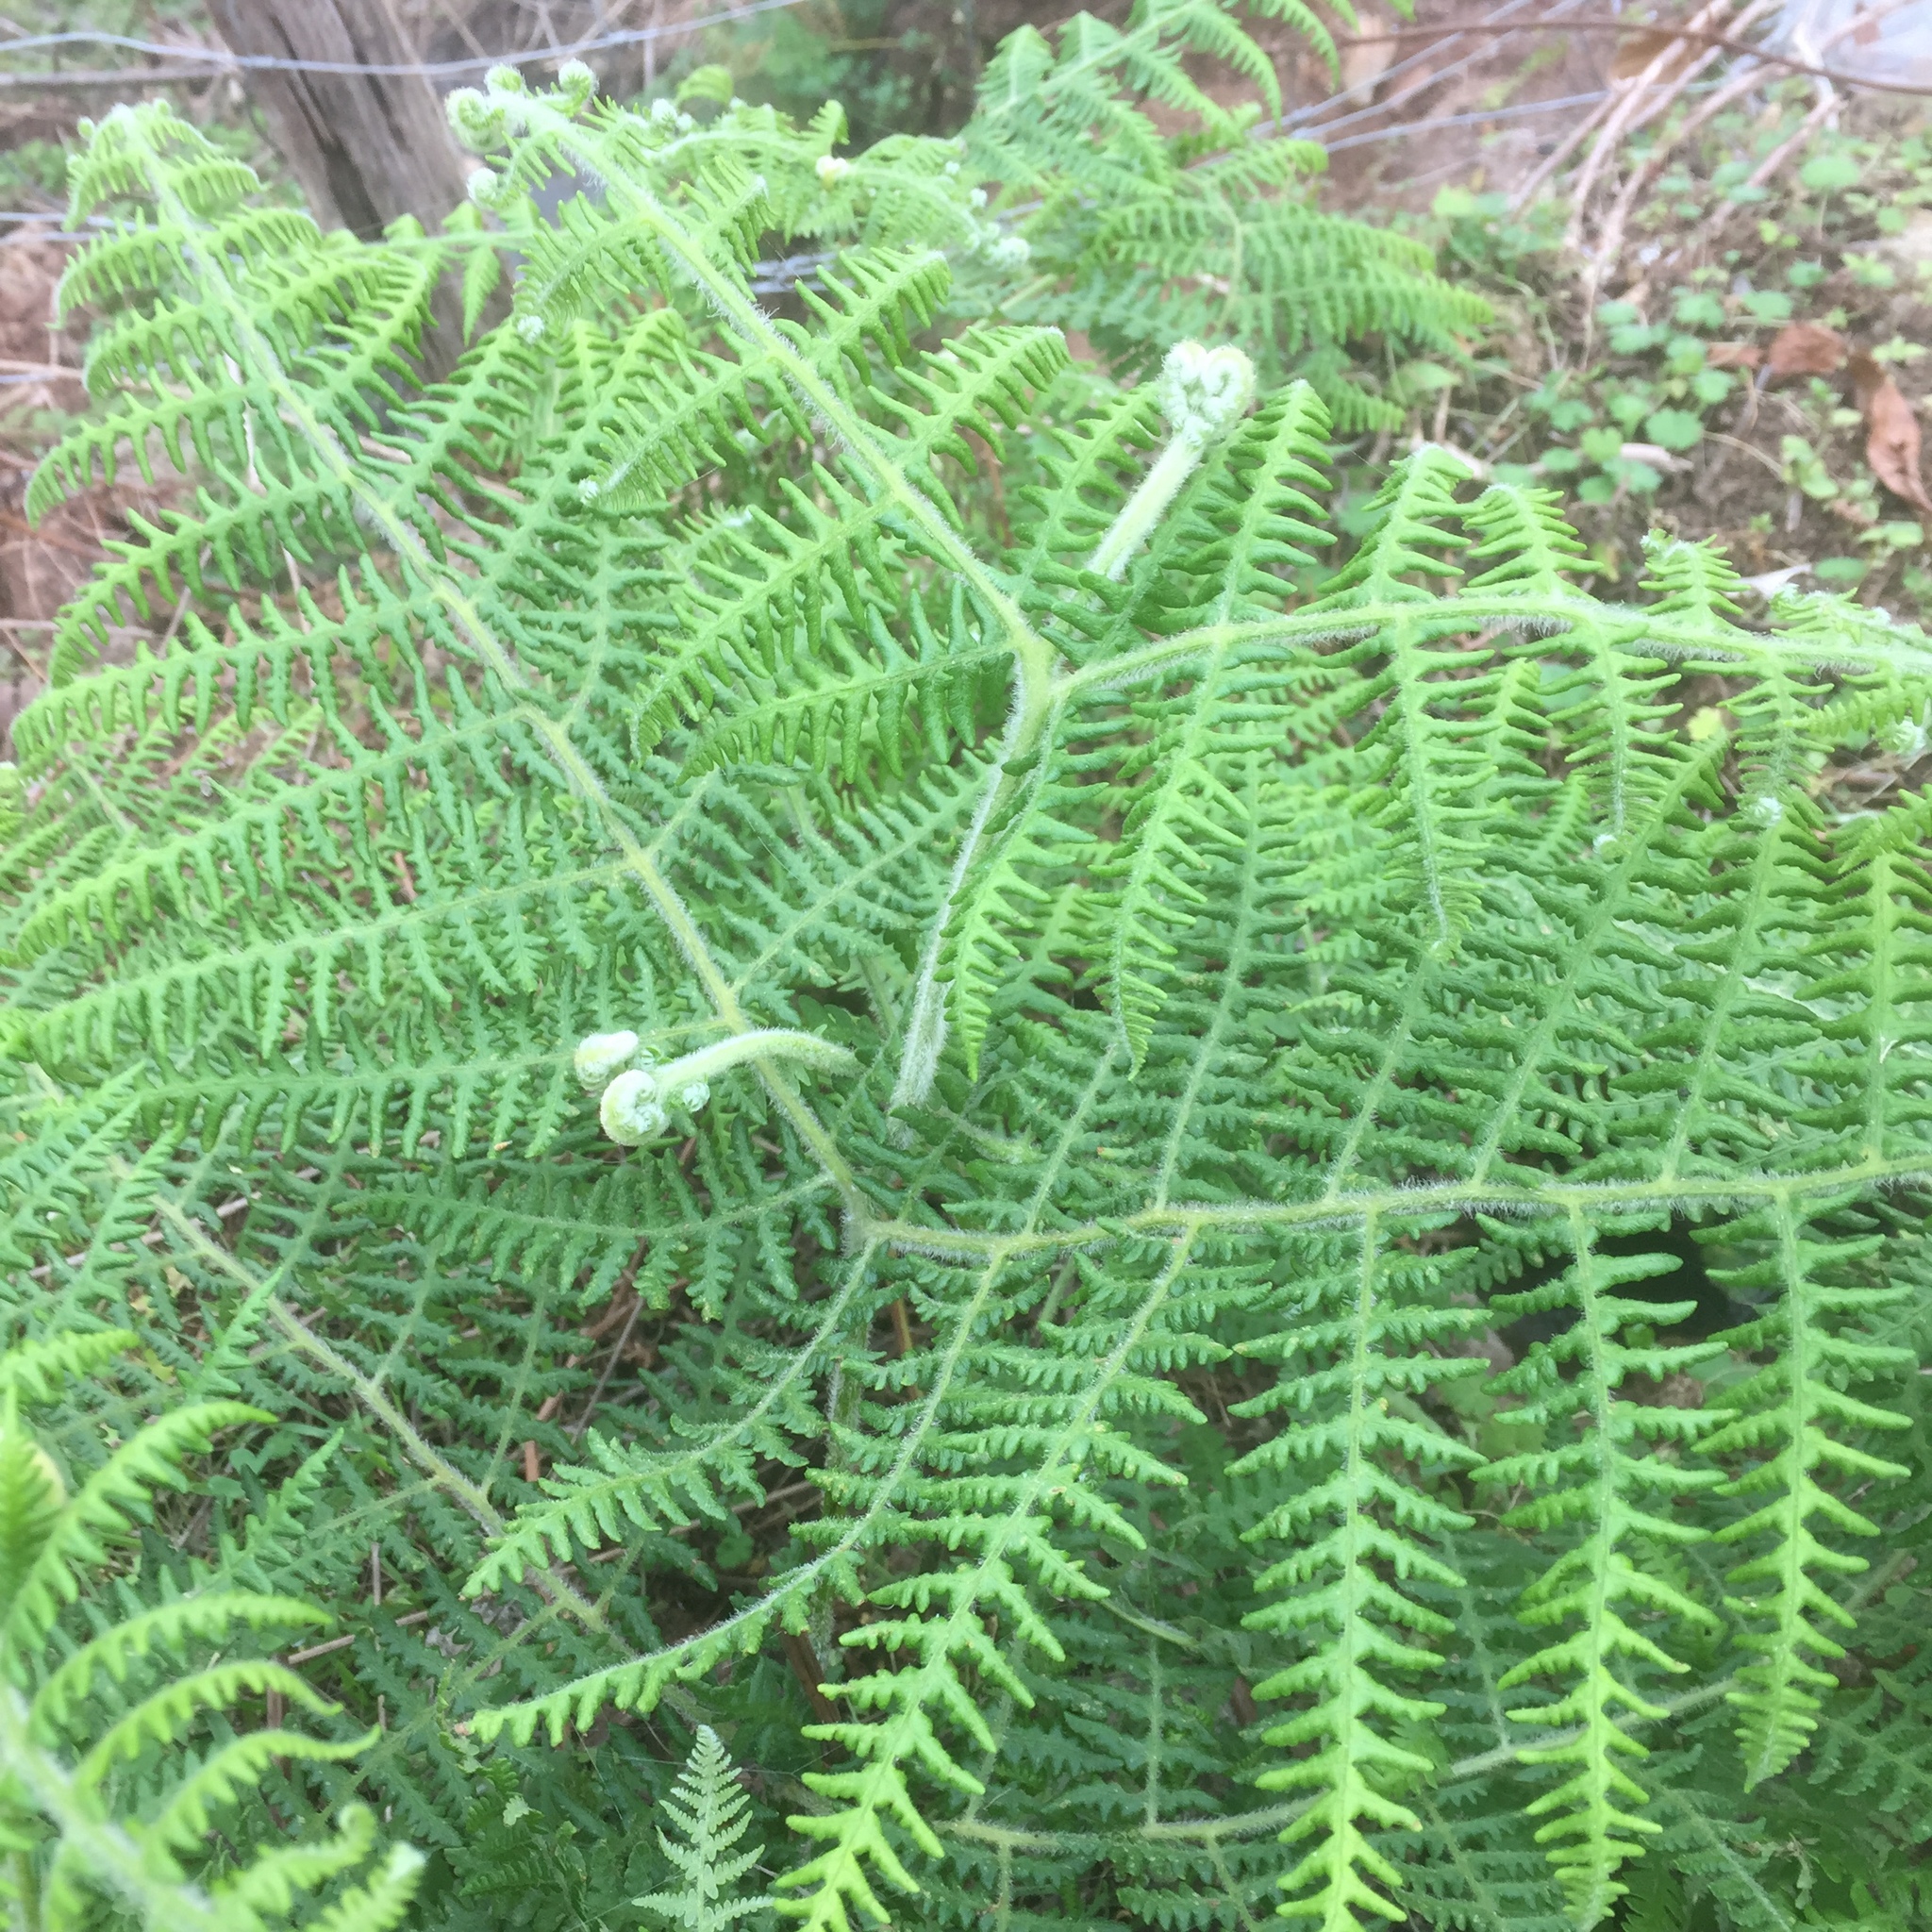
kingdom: Plantae
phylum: Tracheophyta
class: Polypodiopsida
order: Polypodiales
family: Dennstaedtiaceae
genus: Pteridium
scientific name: Pteridium aquilinum
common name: Bracken
